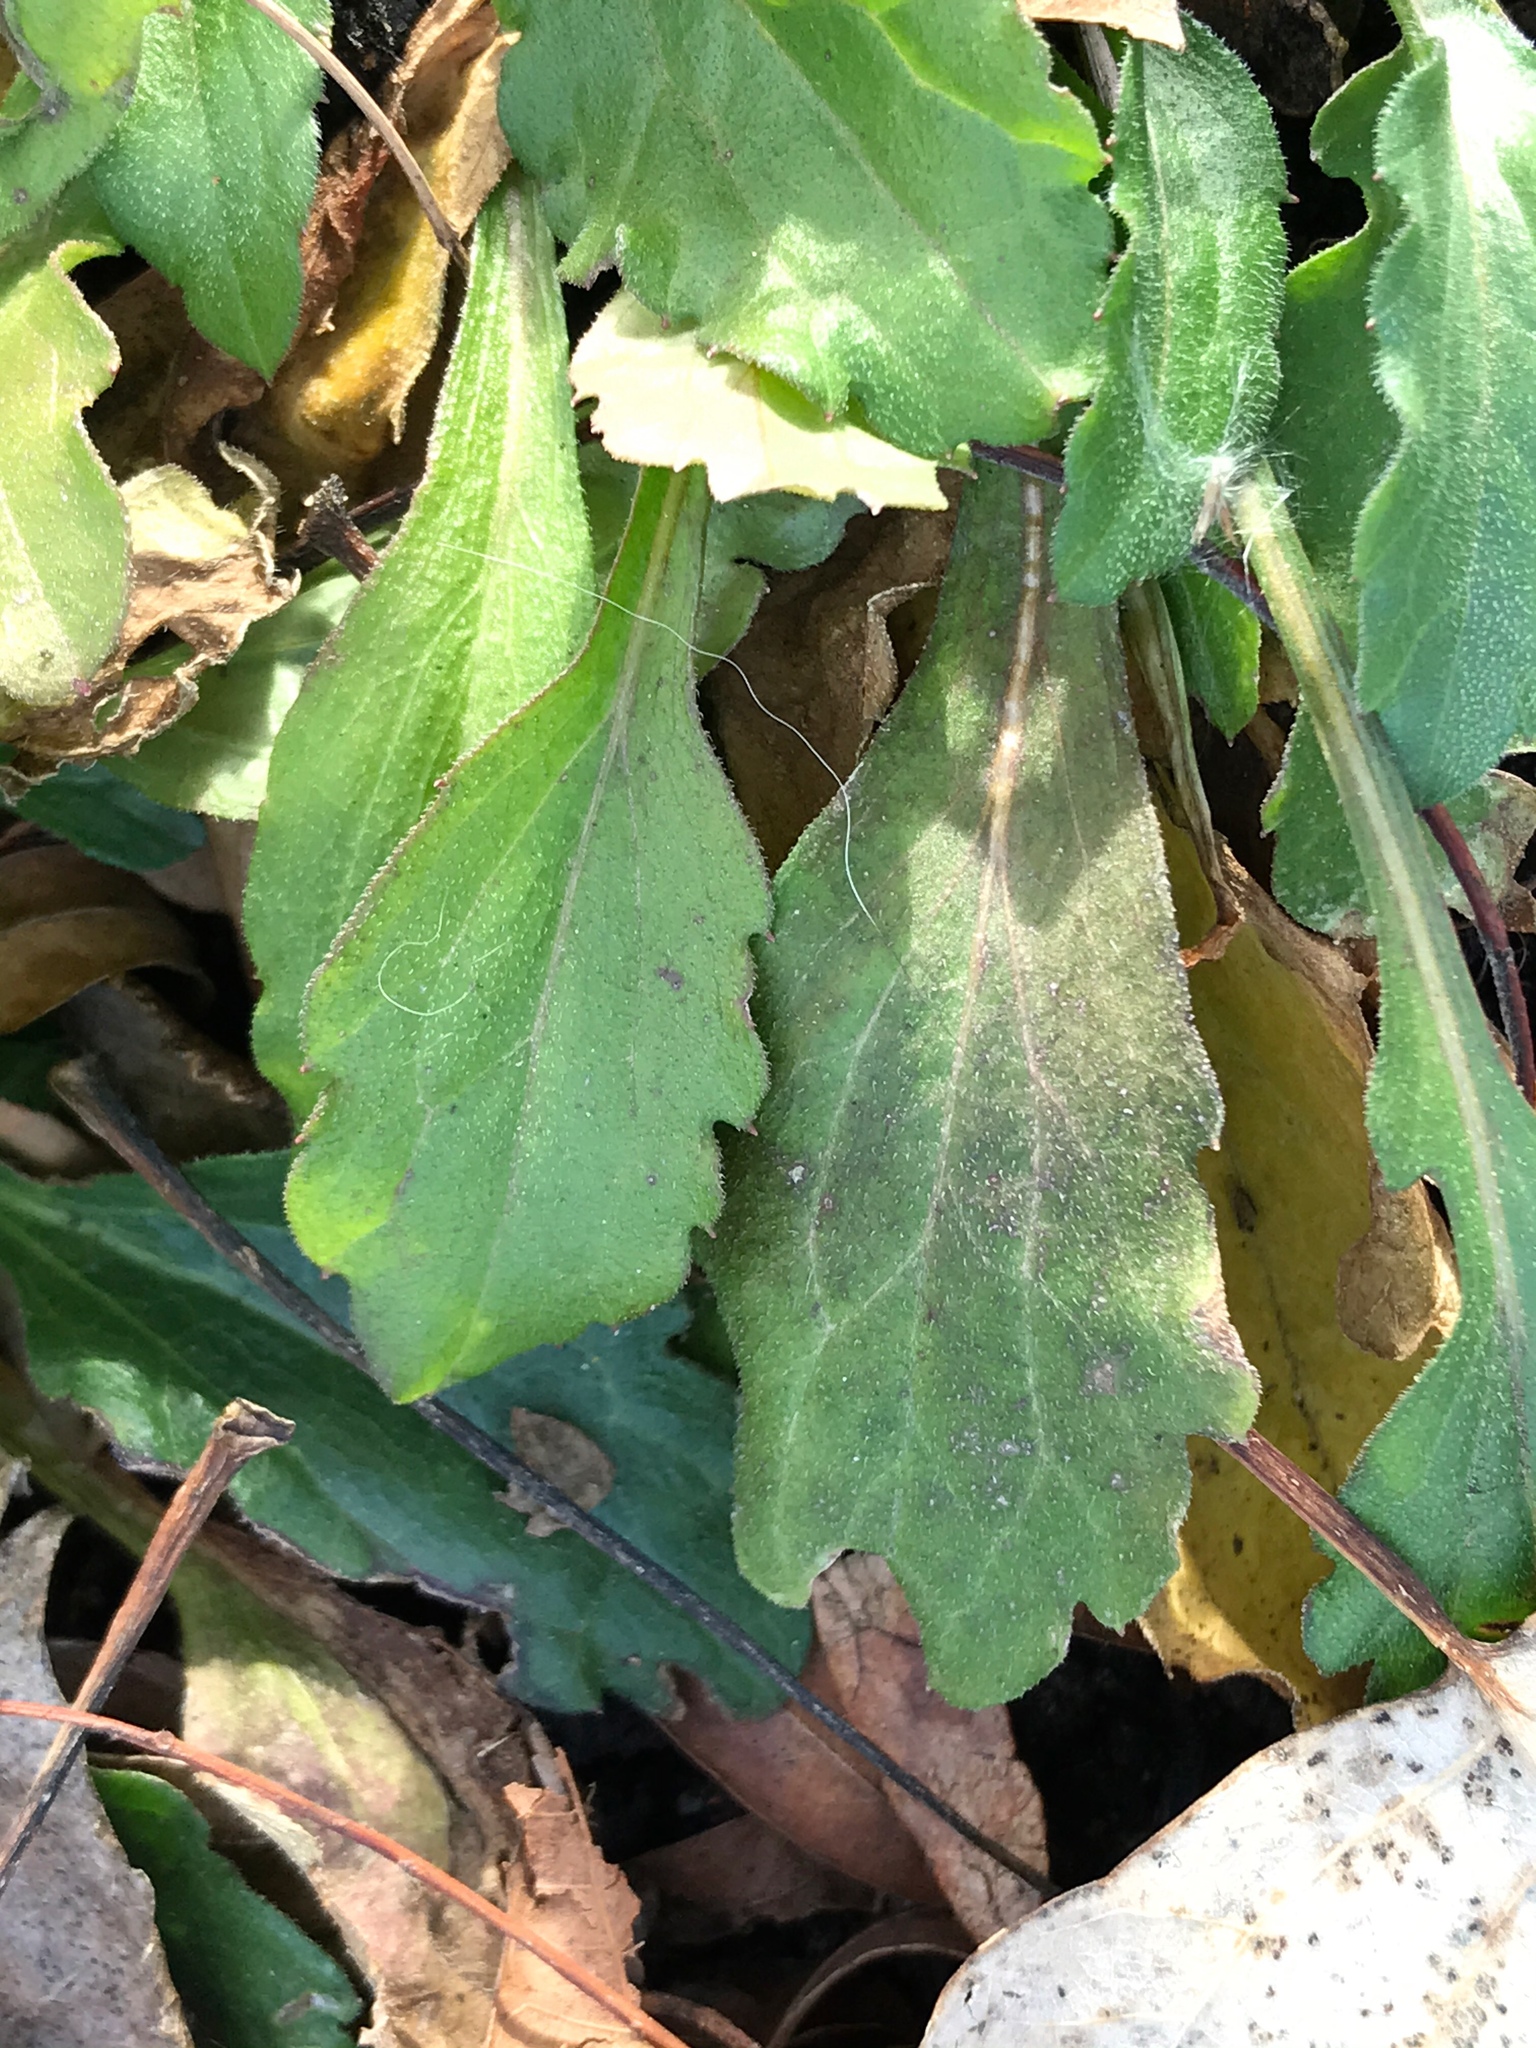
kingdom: Plantae
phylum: Tracheophyta
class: Magnoliopsida
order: Asterales
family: Asteraceae
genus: Erigeron
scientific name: Erigeron canadensis
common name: Canadian fleabane
